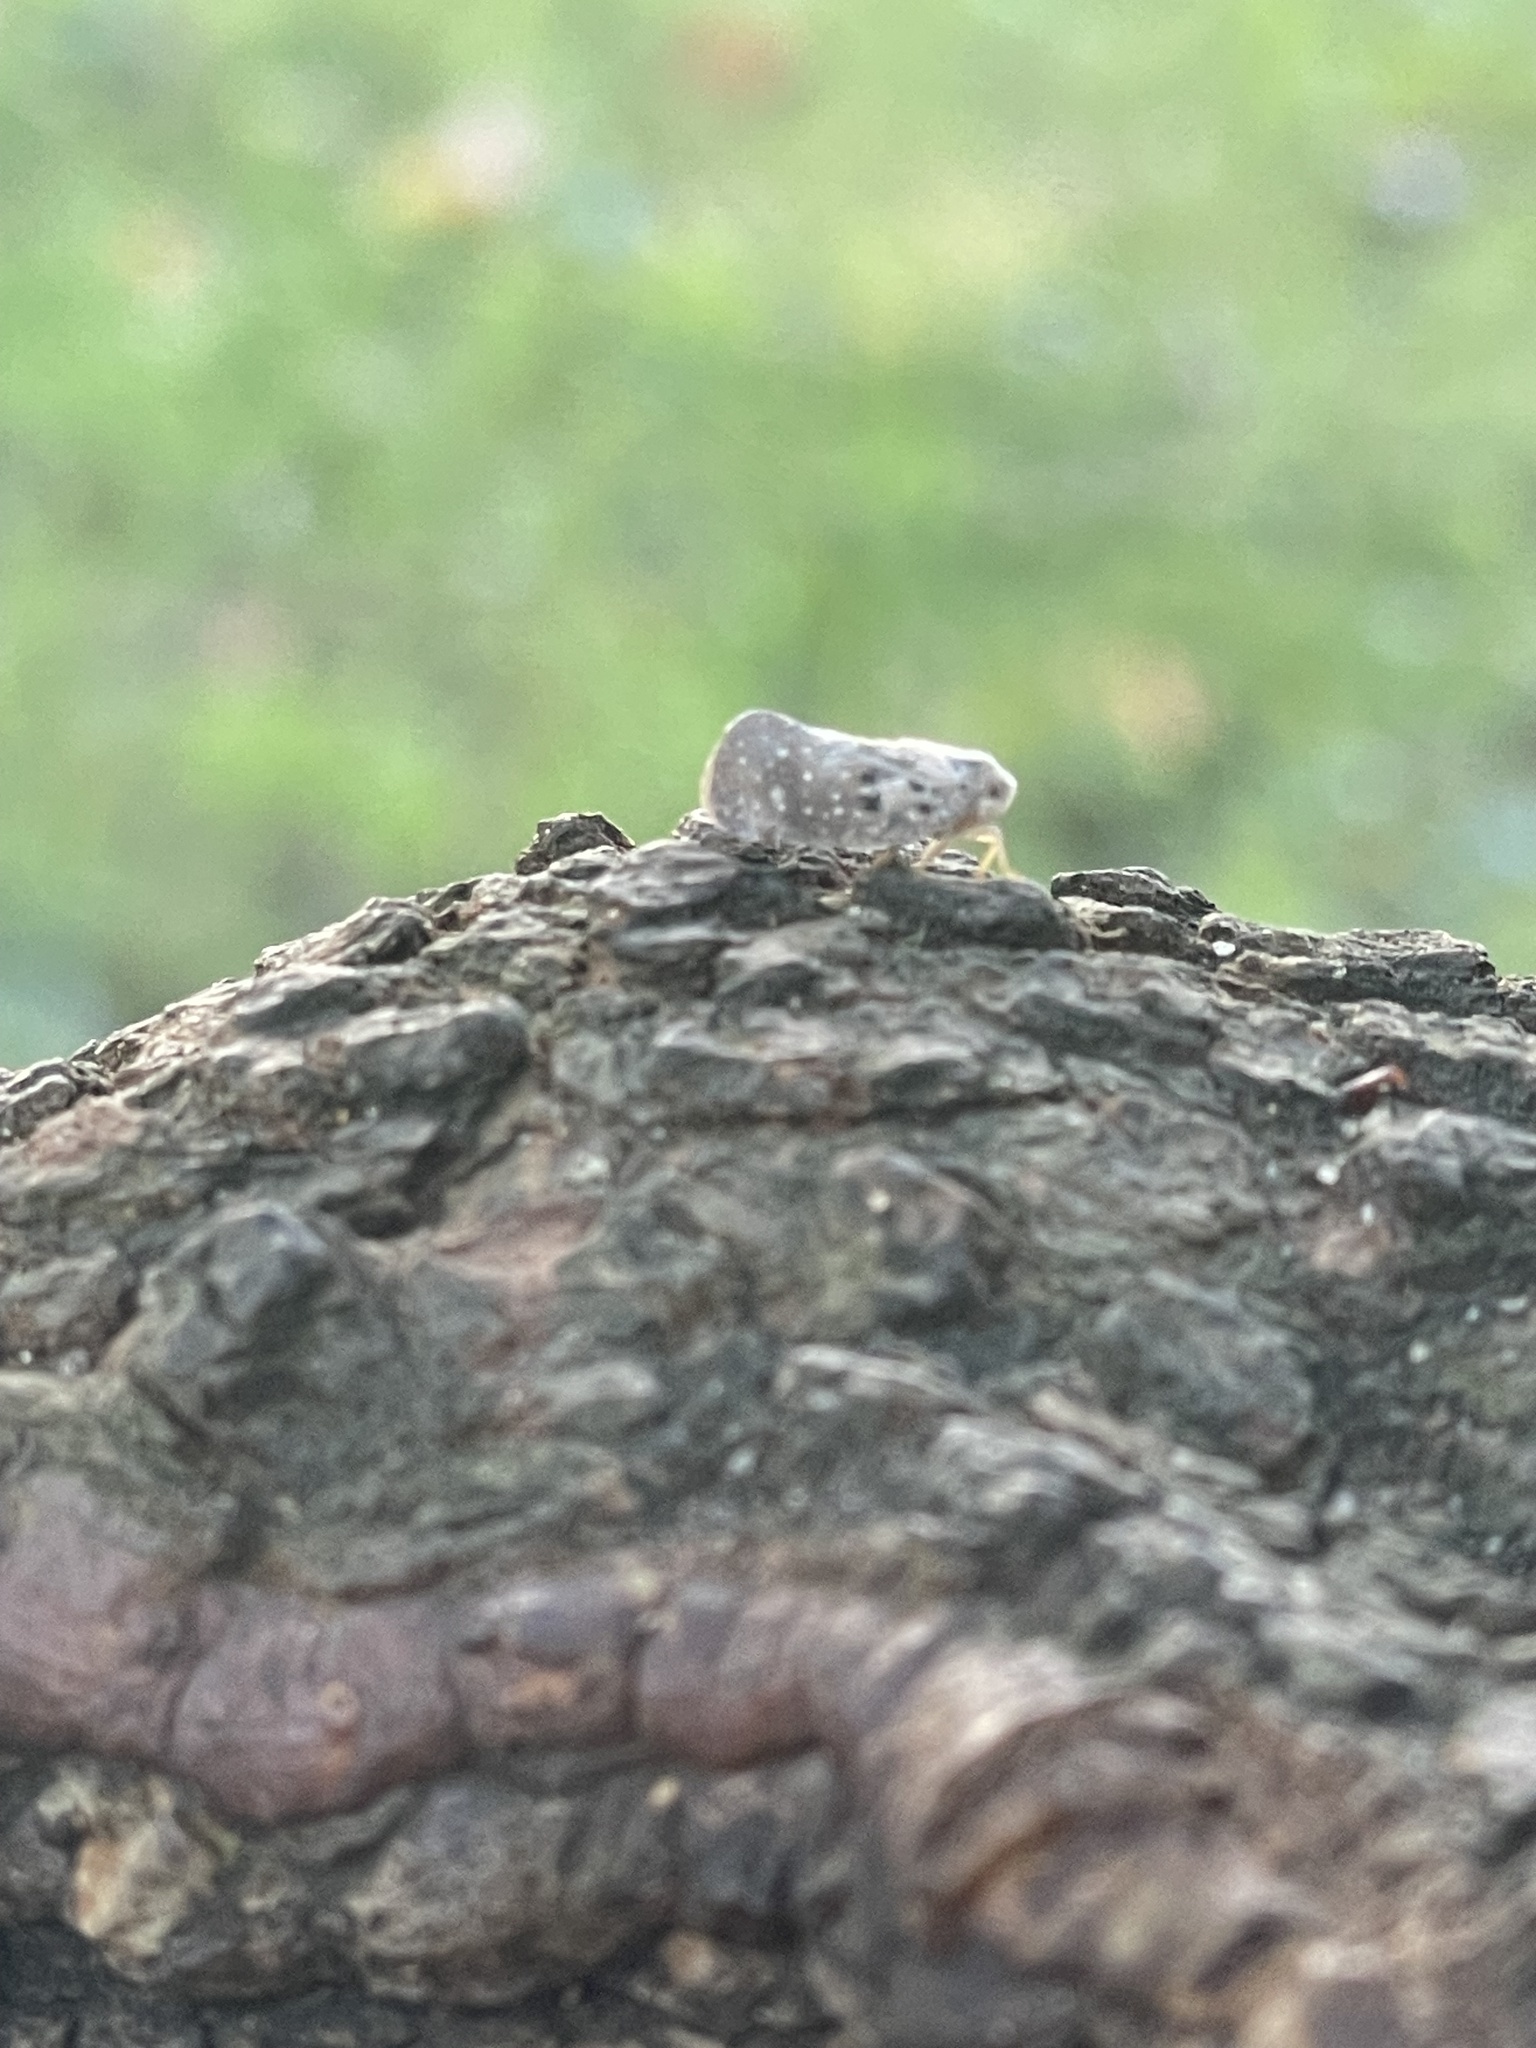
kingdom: Animalia
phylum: Arthropoda
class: Insecta
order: Hemiptera
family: Flatidae
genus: Metcalfa
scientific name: Metcalfa pruinosa
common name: Citrus flatid planthopper
